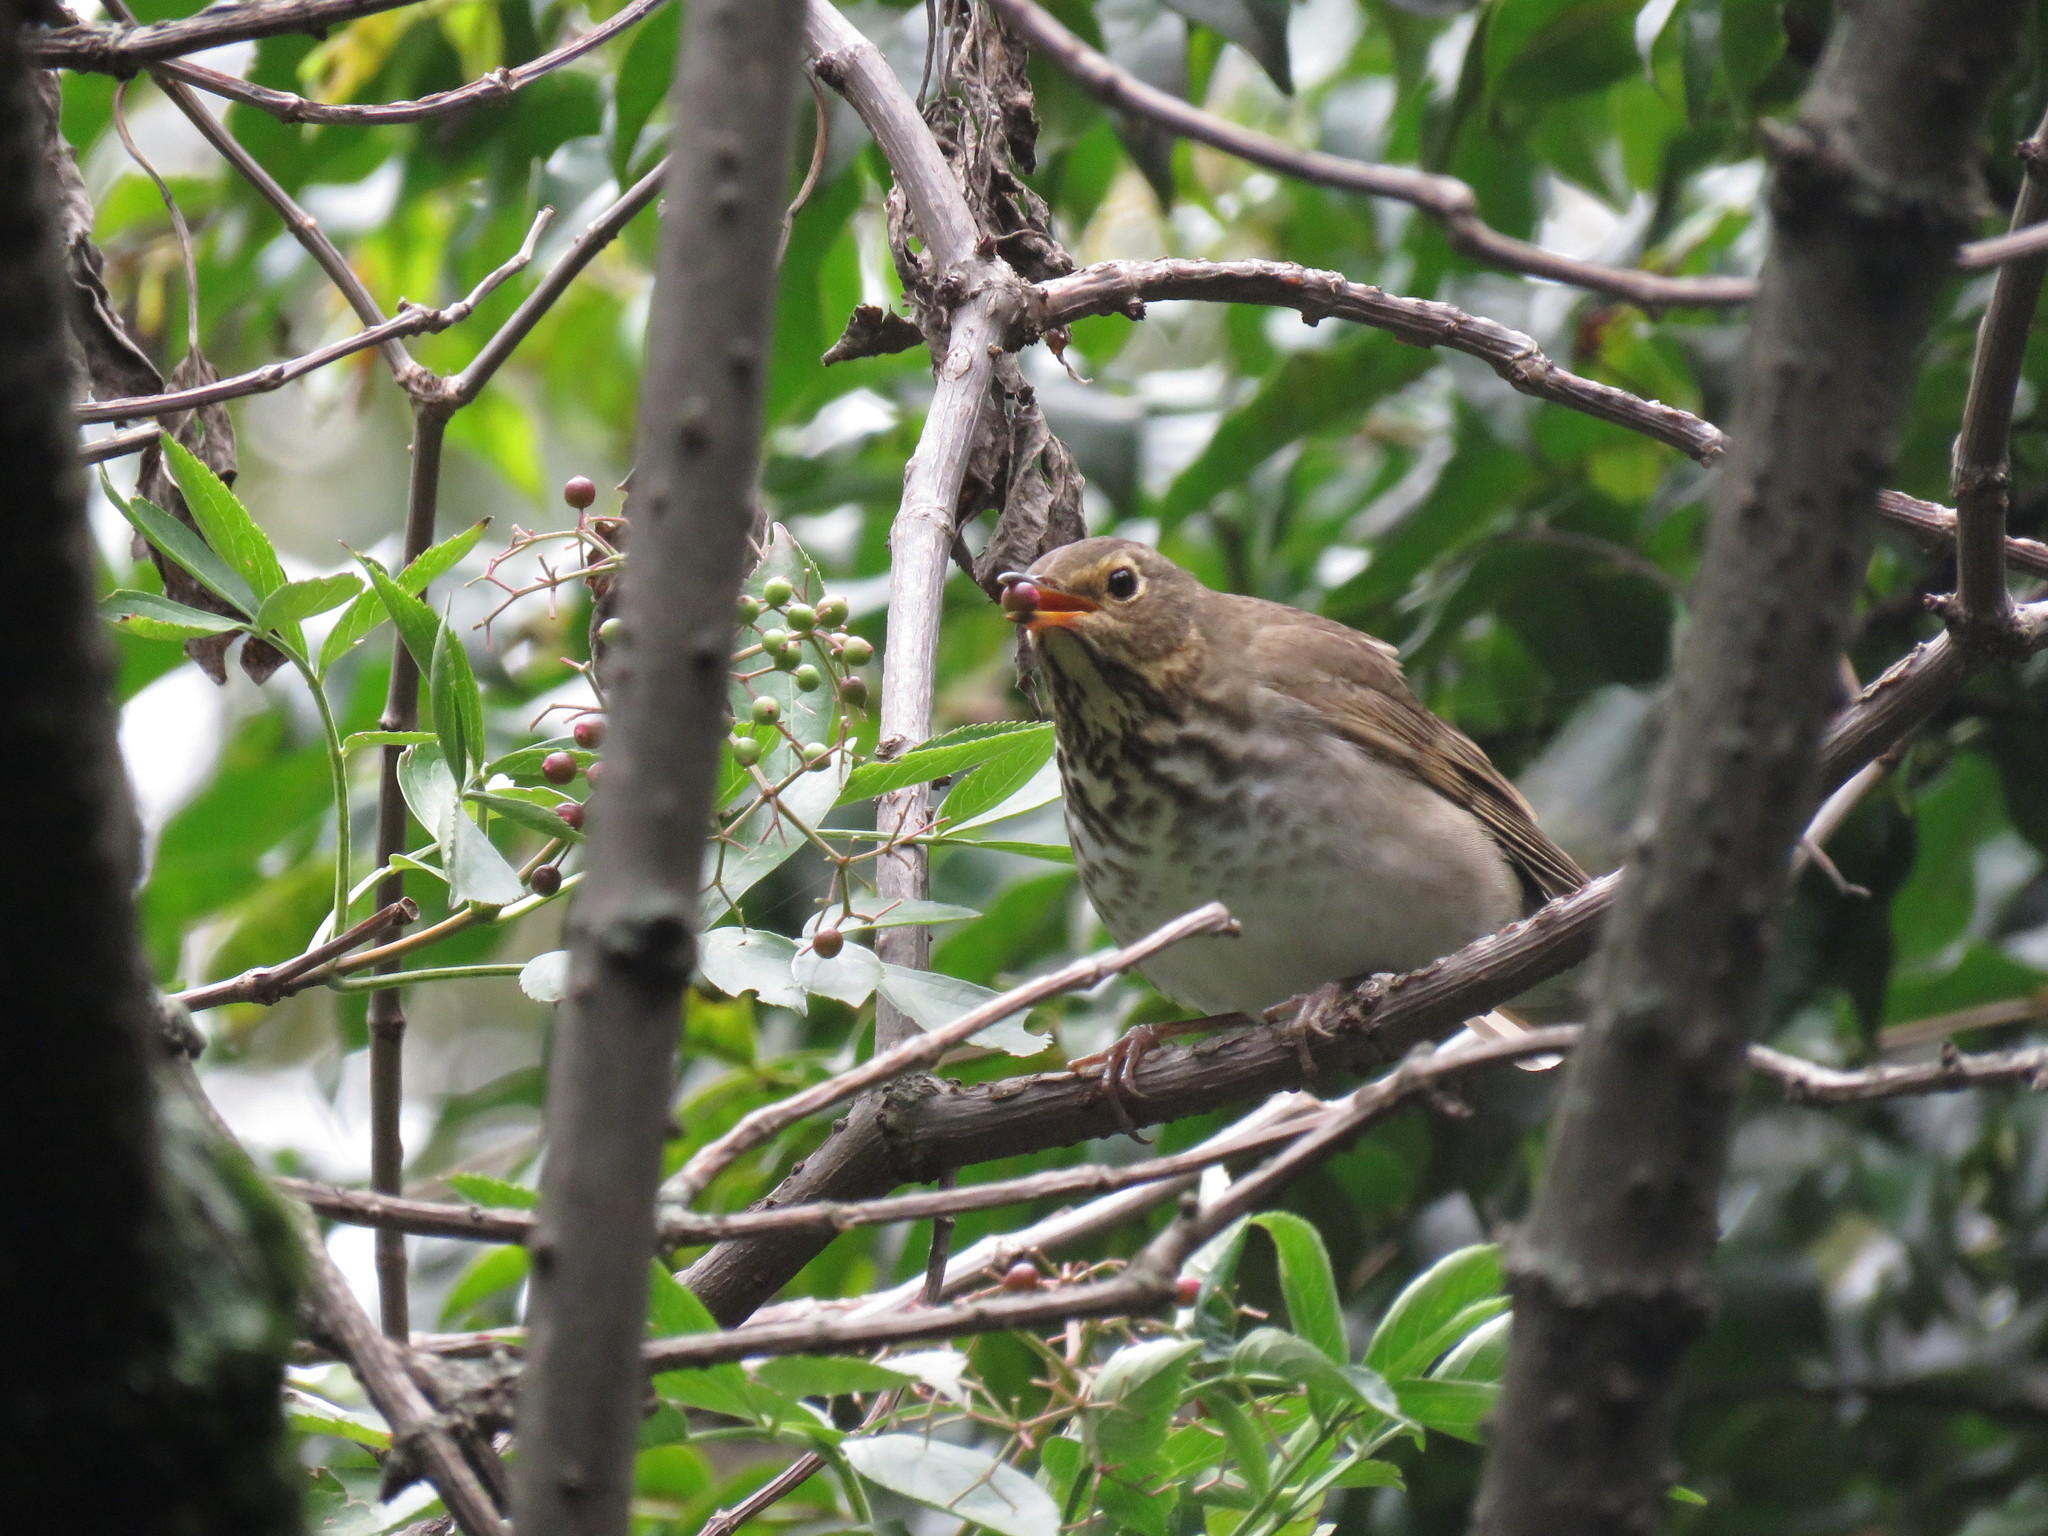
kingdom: Animalia
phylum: Chordata
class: Aves
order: Passeriformes
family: Turdidae
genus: Catharus
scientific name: Catharus ustulatus
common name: Swainson's thrush
